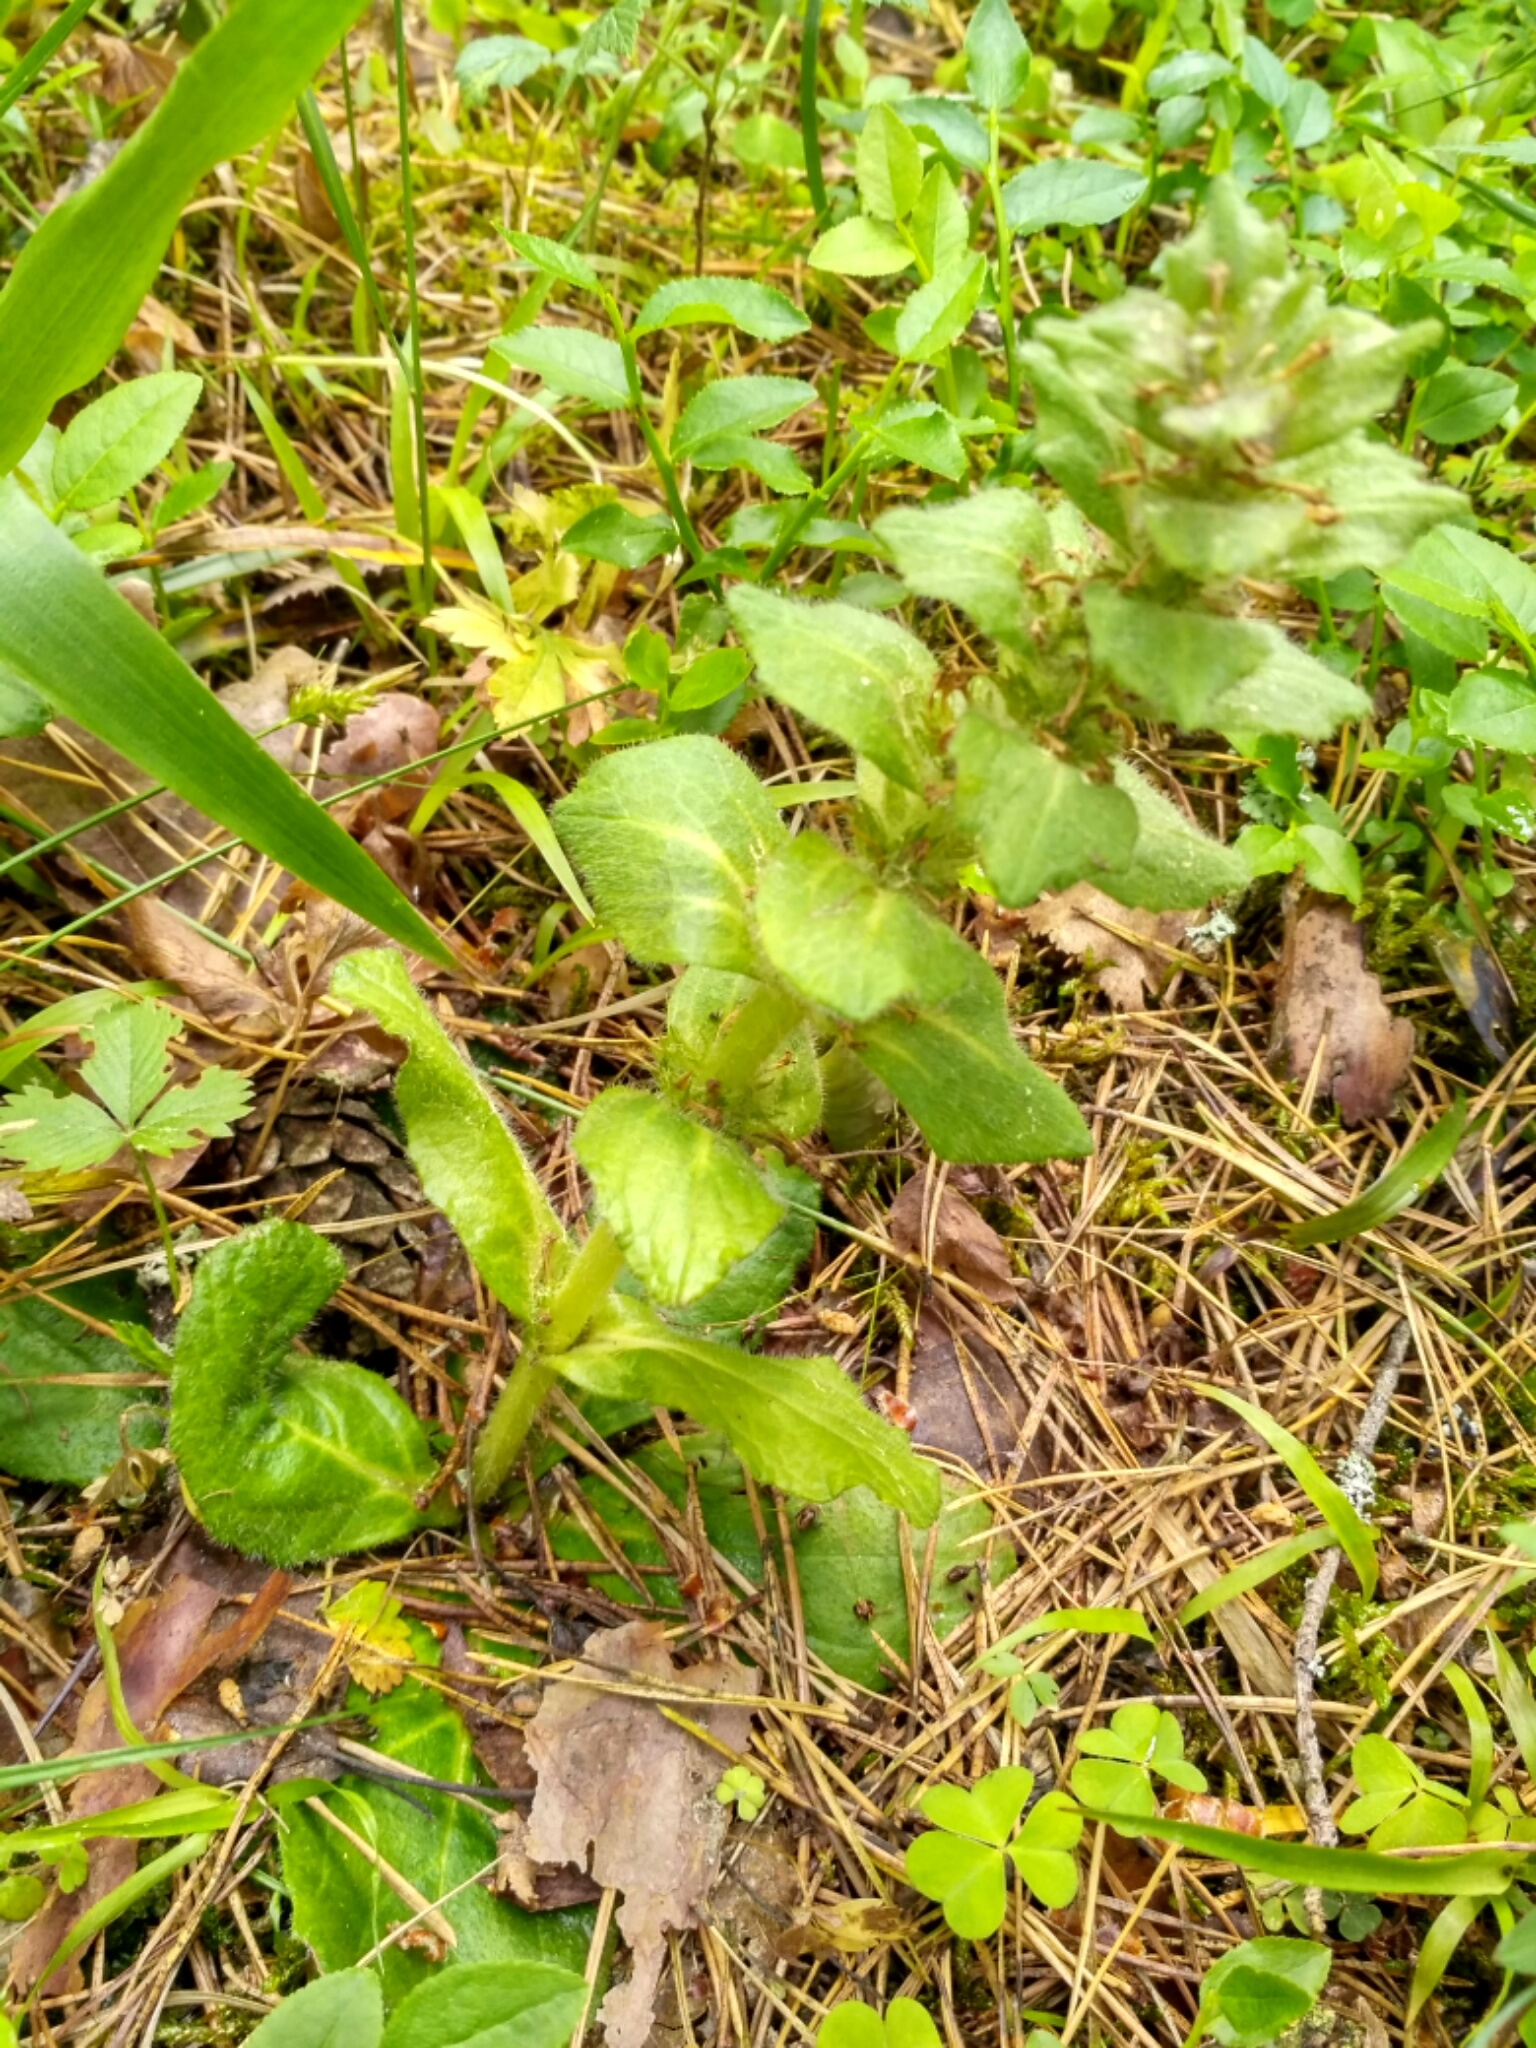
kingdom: Plantae
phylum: Tracheophyta
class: Magnoliopsida
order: Lamiales
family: Lamiaceae
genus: Ajuga
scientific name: Ajuga pyramidalis
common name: Pyramid bugle
